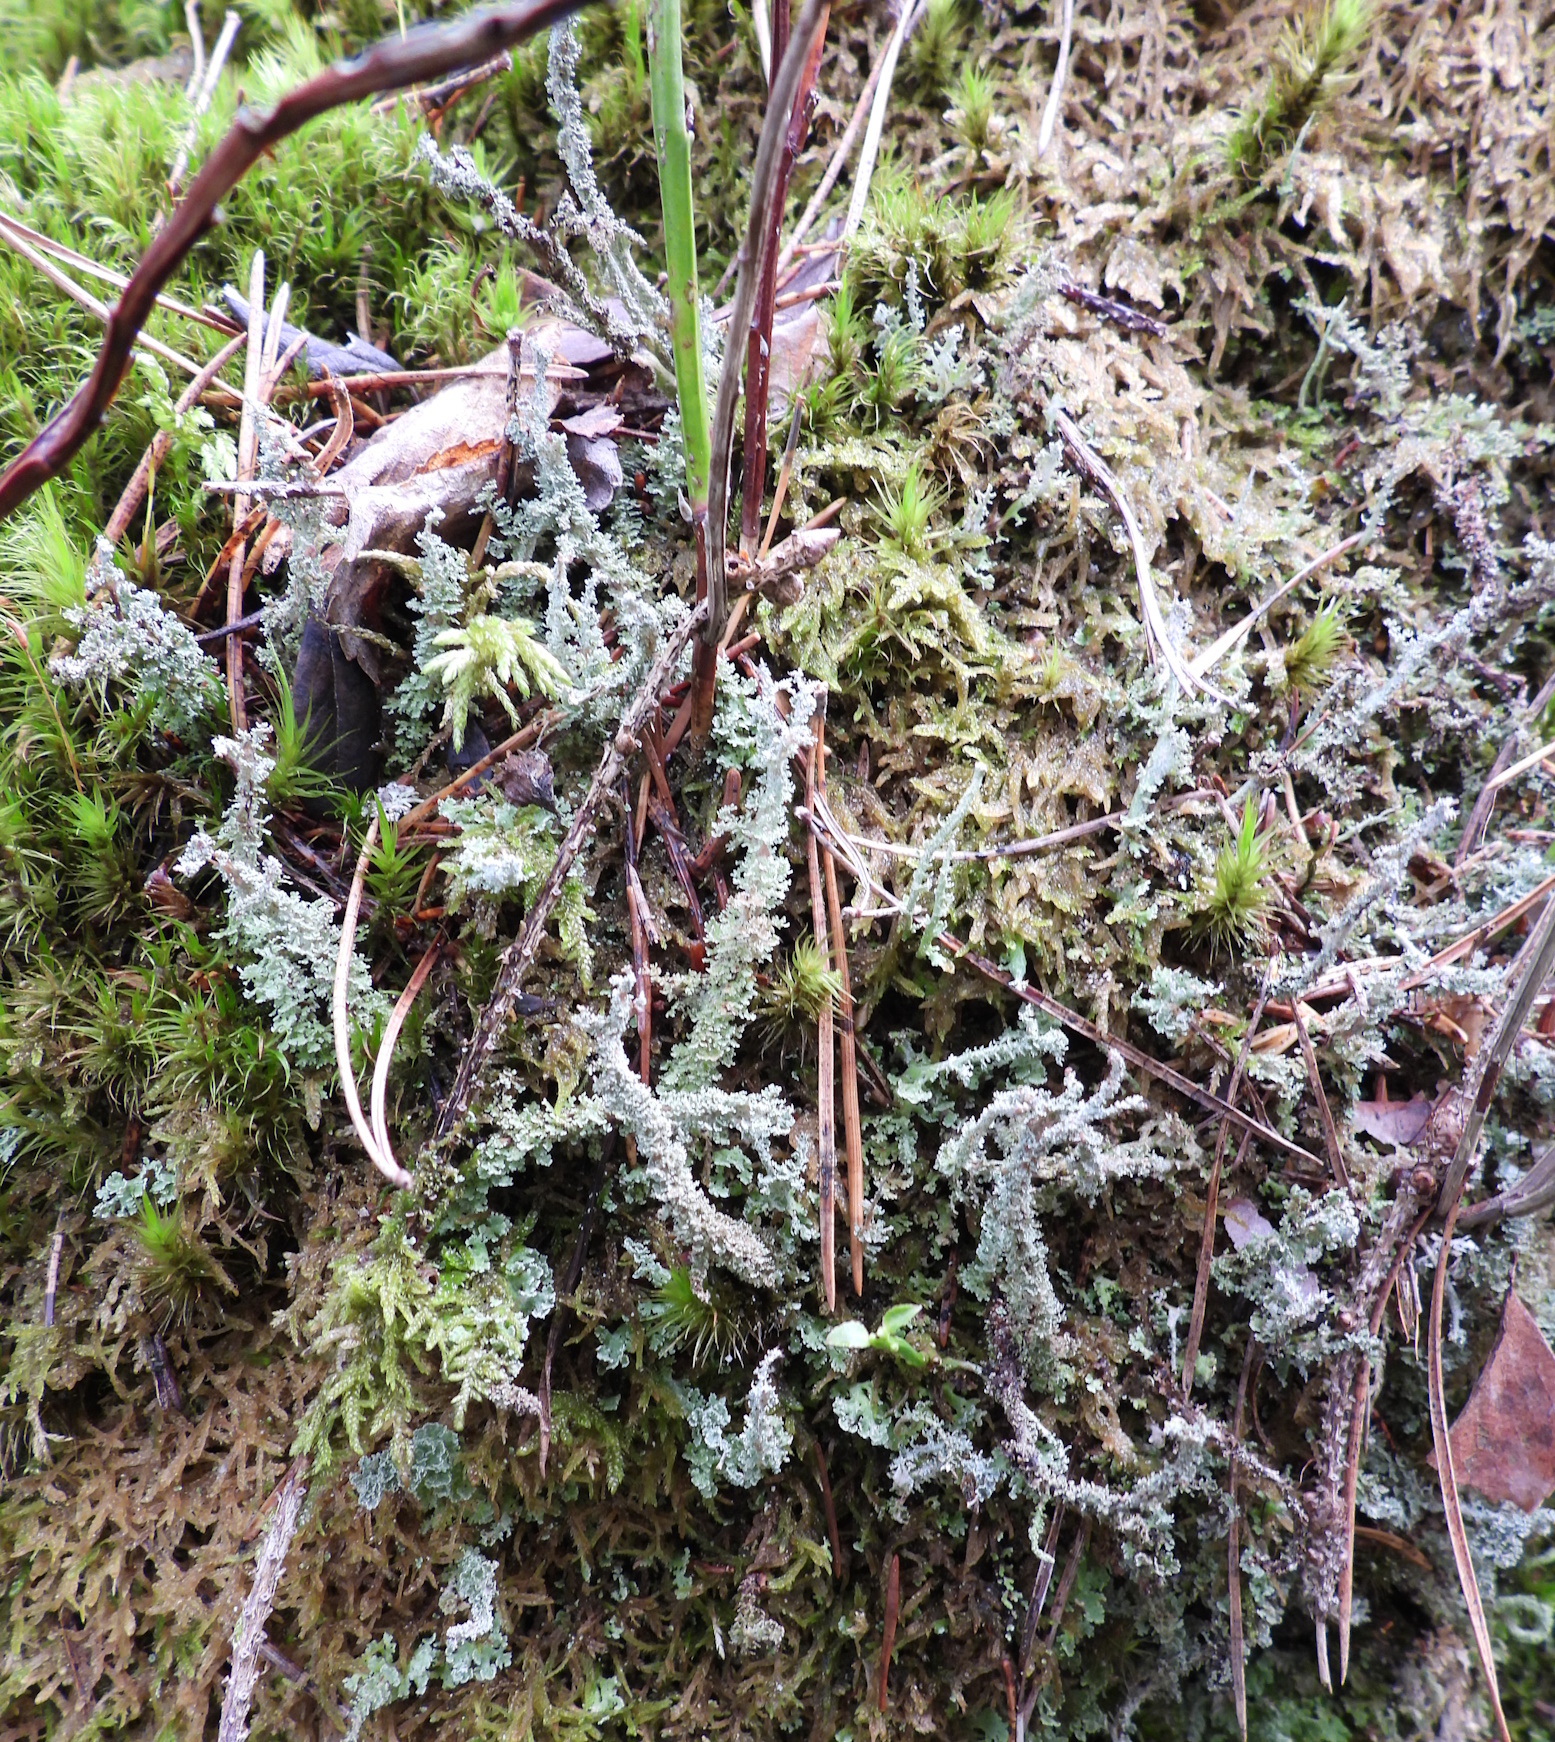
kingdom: Fungi
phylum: Ascomycota
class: Lecanoromycetes
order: Lecanorales
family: Cladoniaceae
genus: Cladonia
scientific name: Cladonia squamosa
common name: Dragon horn
